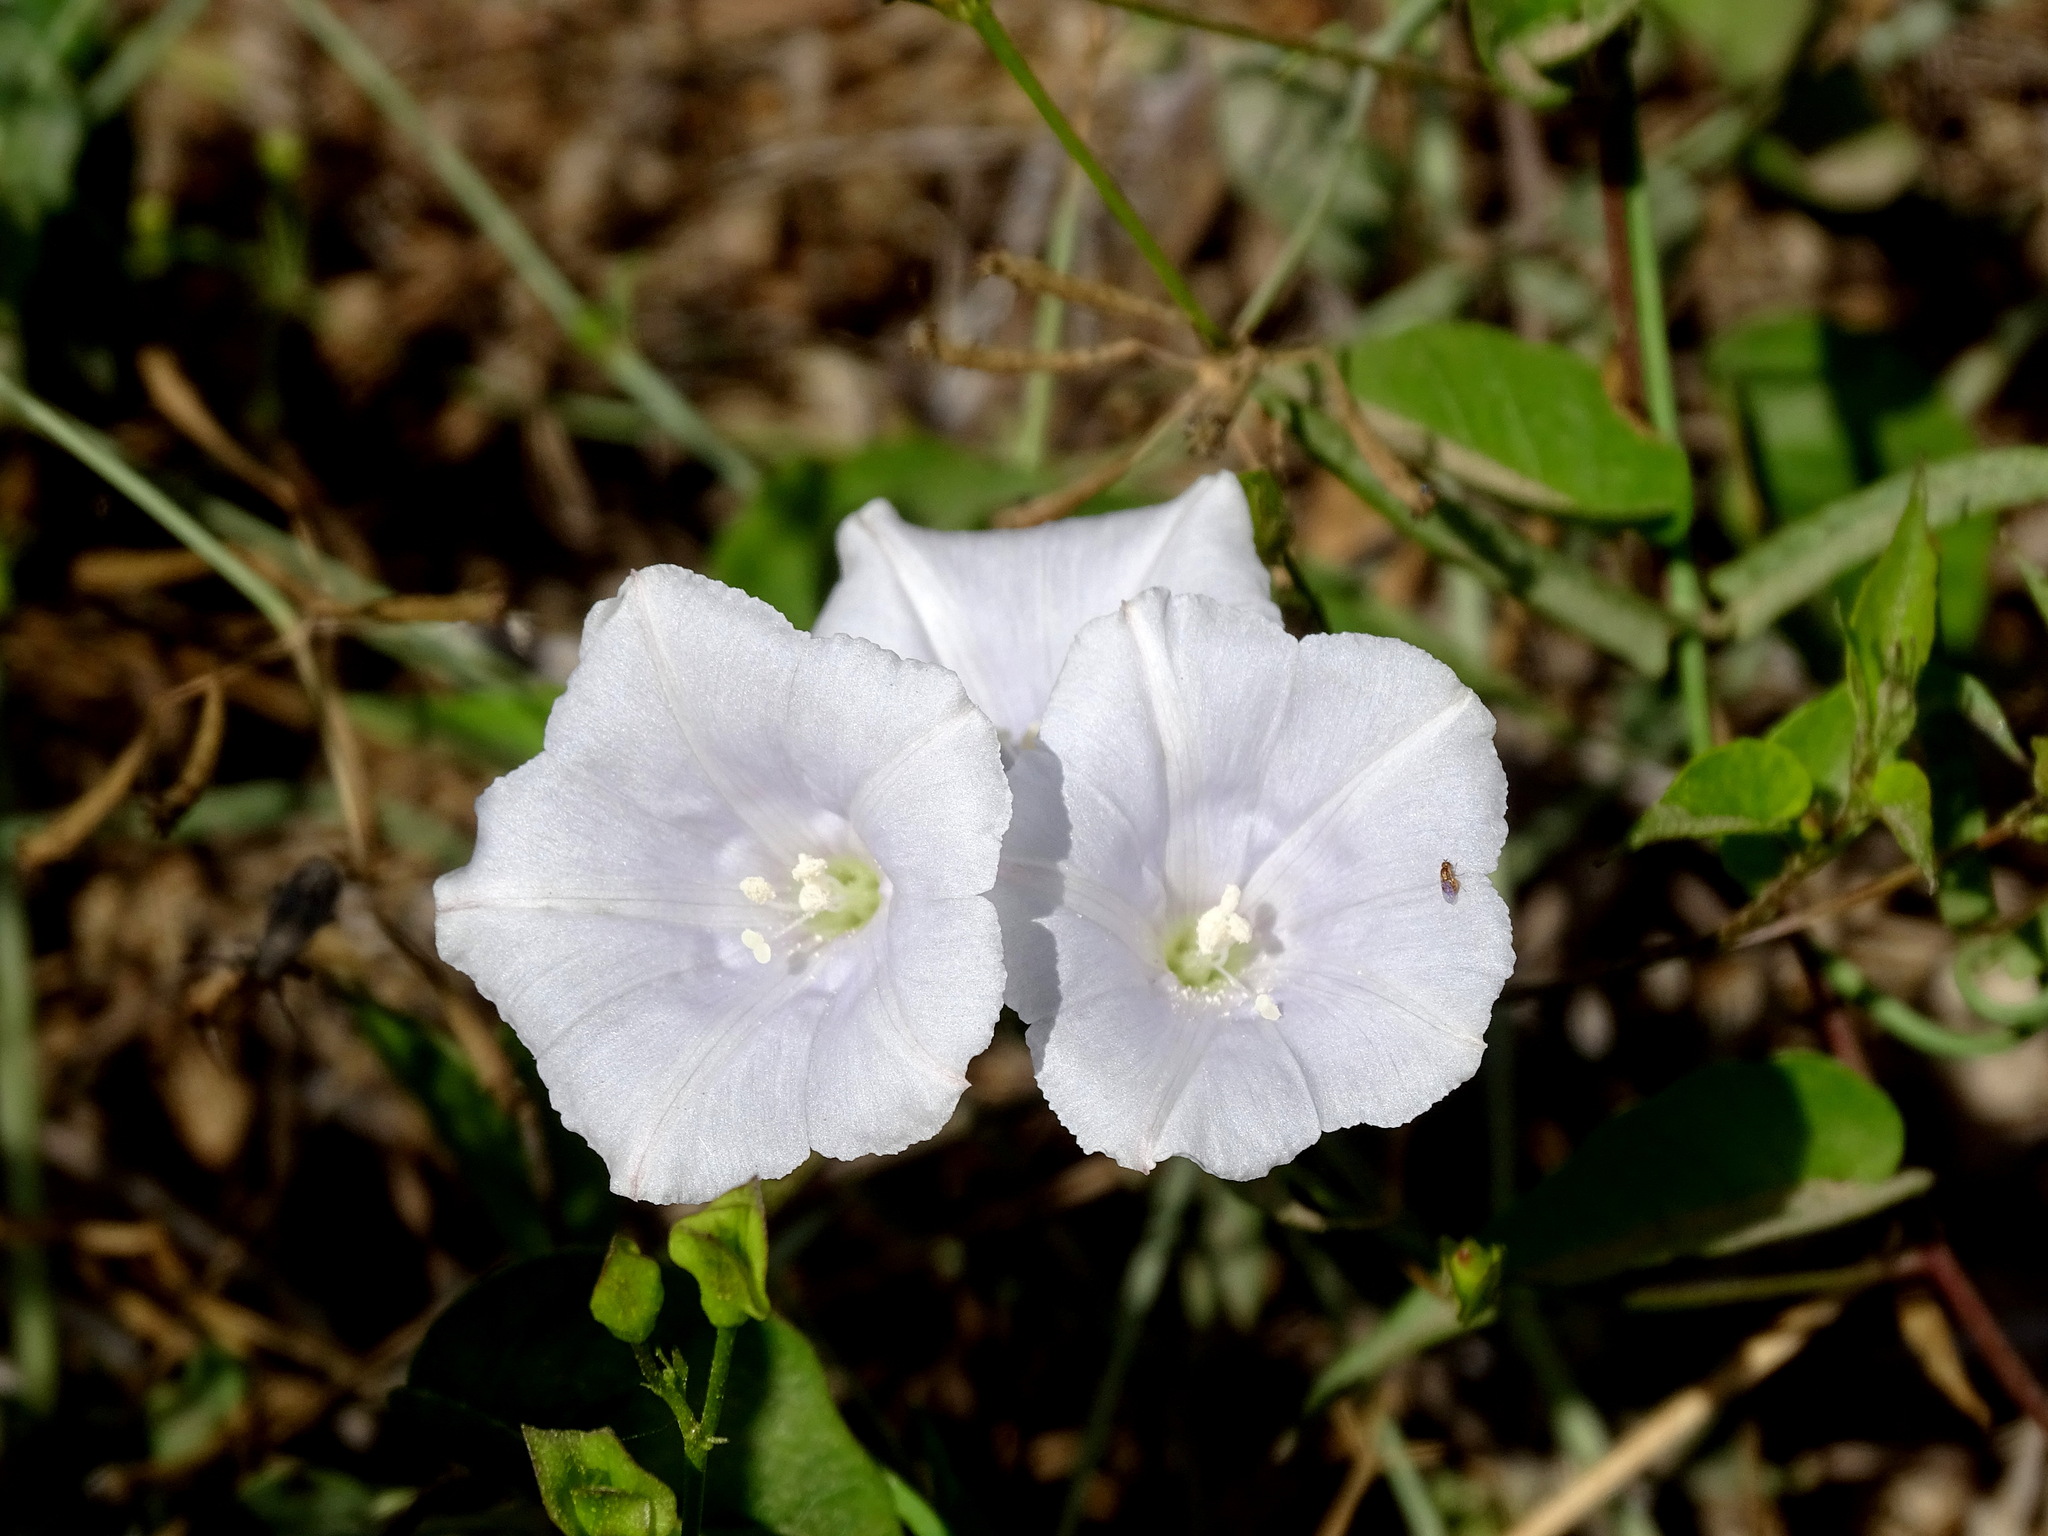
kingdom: Plantae
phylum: Tracheophyta
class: Magnoliopsida
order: Solanales
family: Convolvulaceae
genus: Jacquemontia
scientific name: Jacquemontia pringlei
